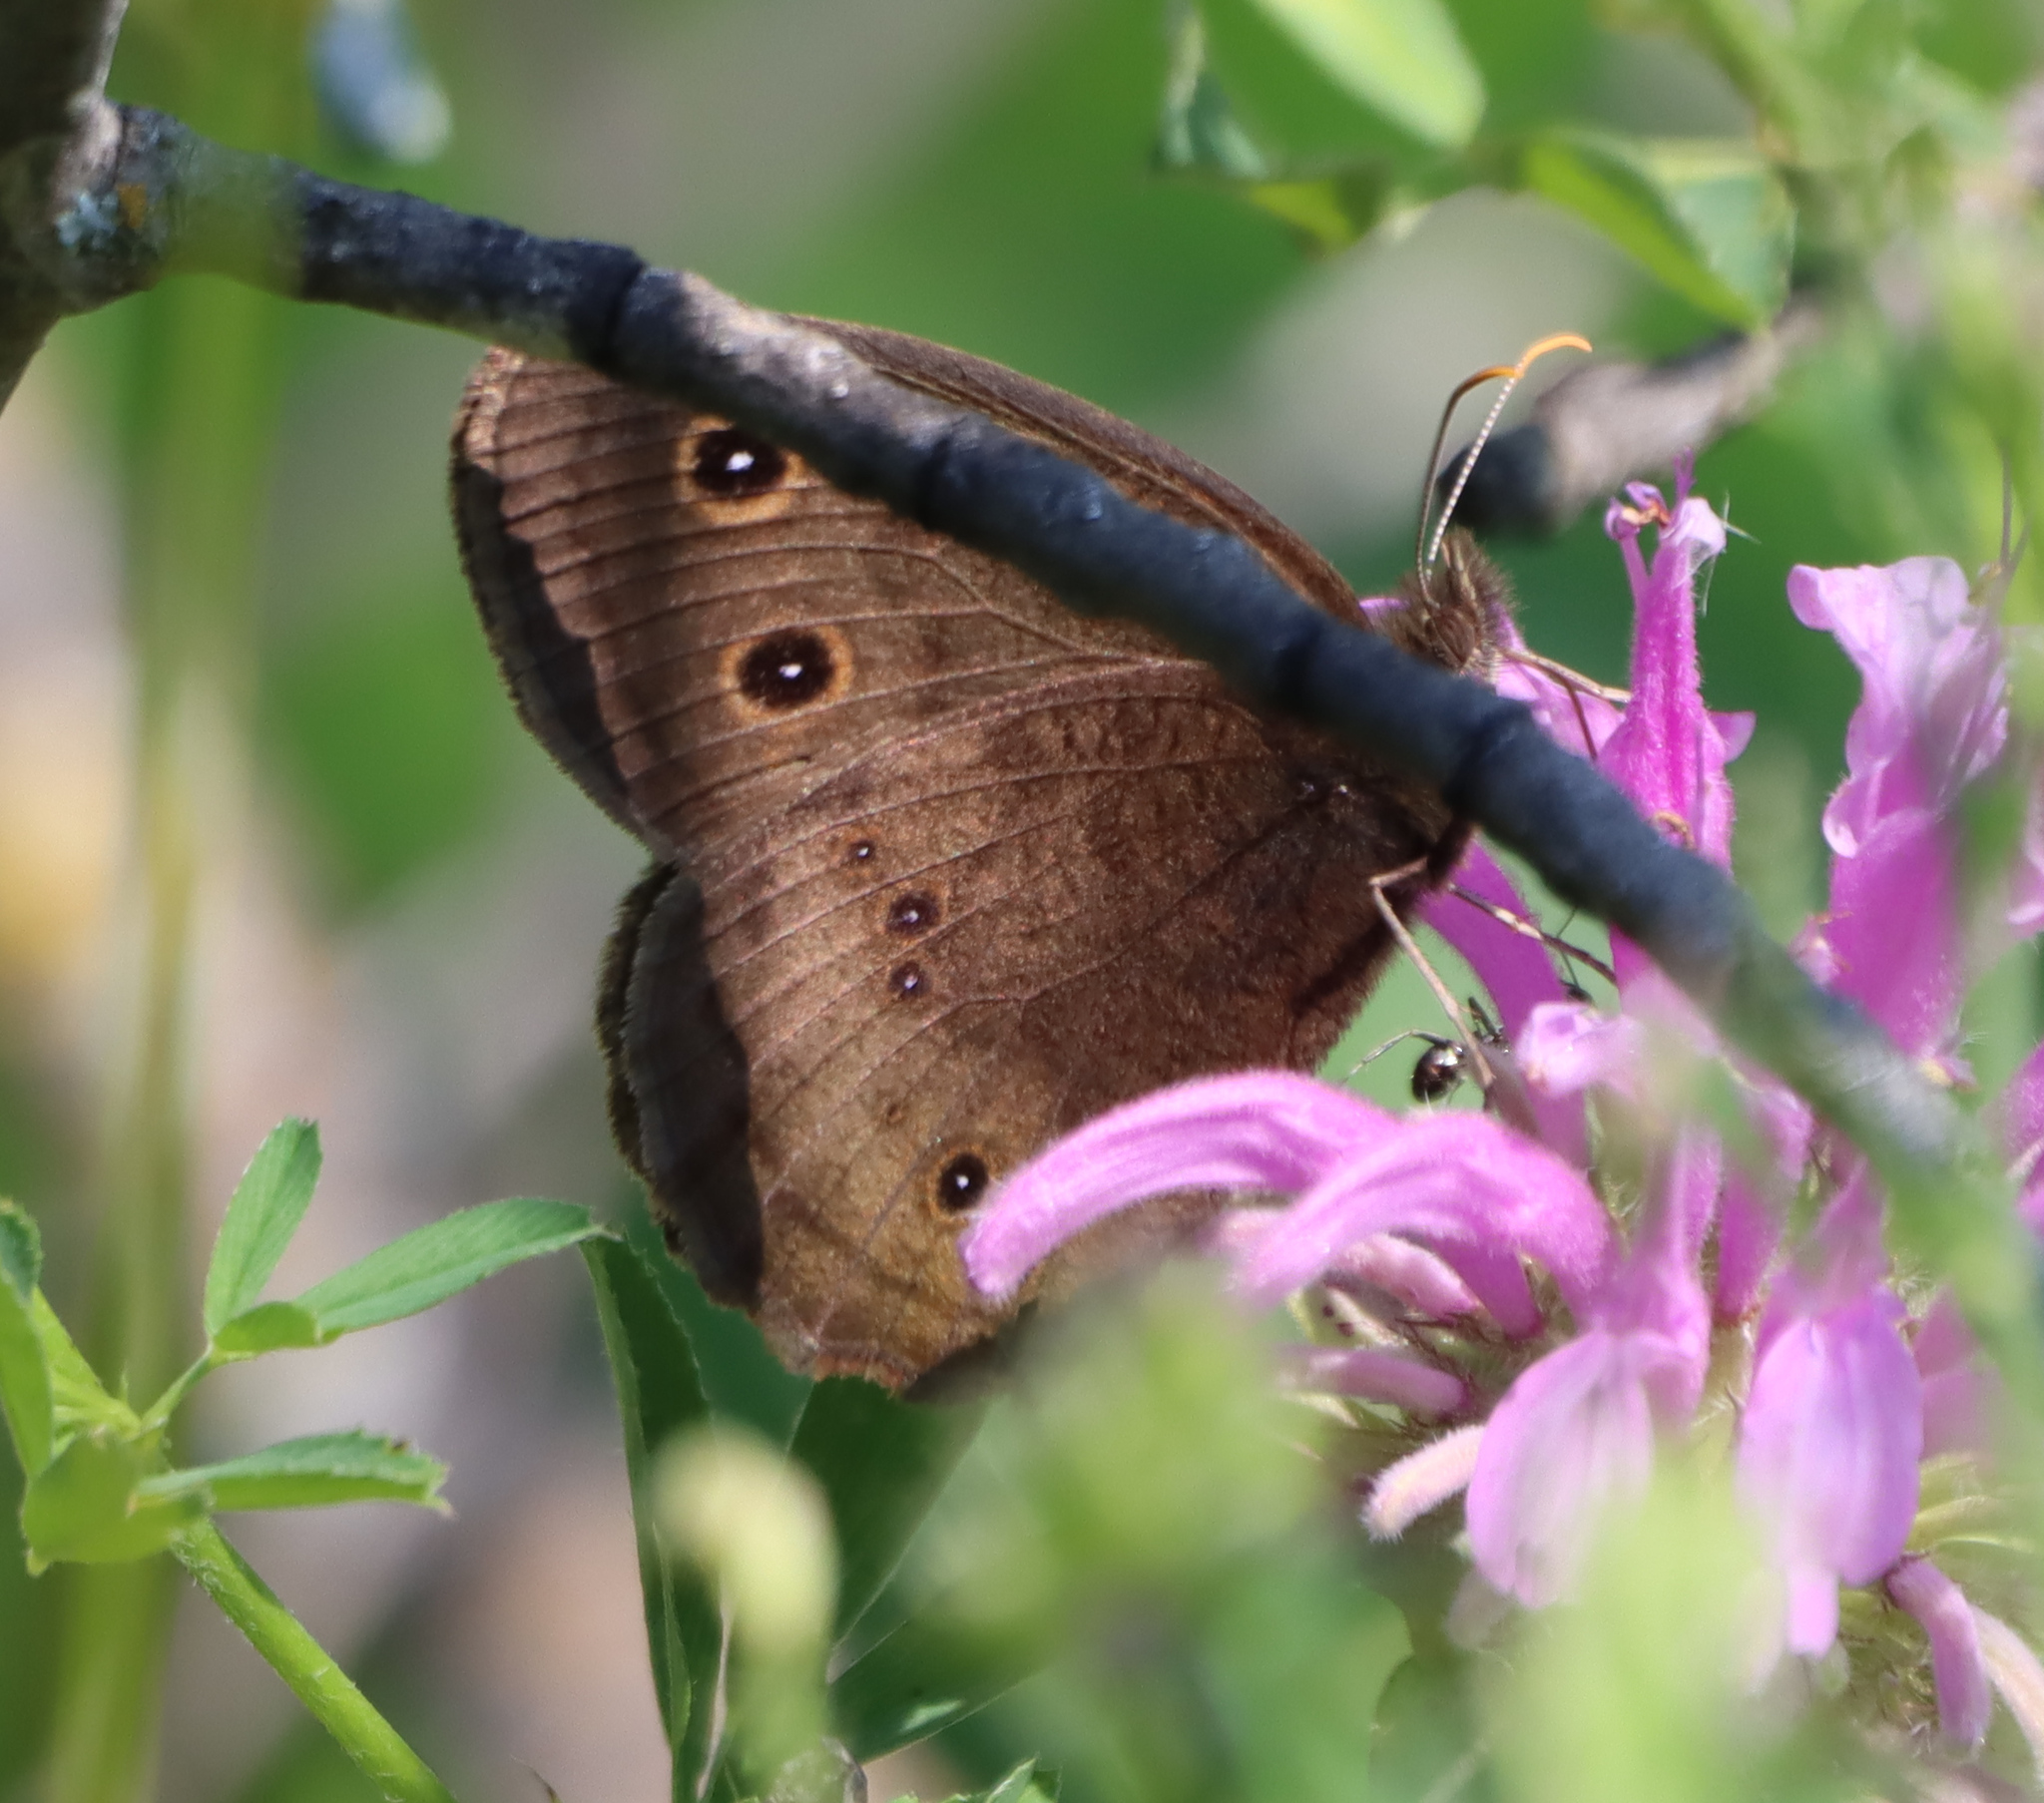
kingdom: Animalia
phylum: Arthropoda
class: Insecta
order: Lepidoptera
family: Nymphalidae
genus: Cercyonis
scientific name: Cercyonis pegala
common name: Common wood-nymph
